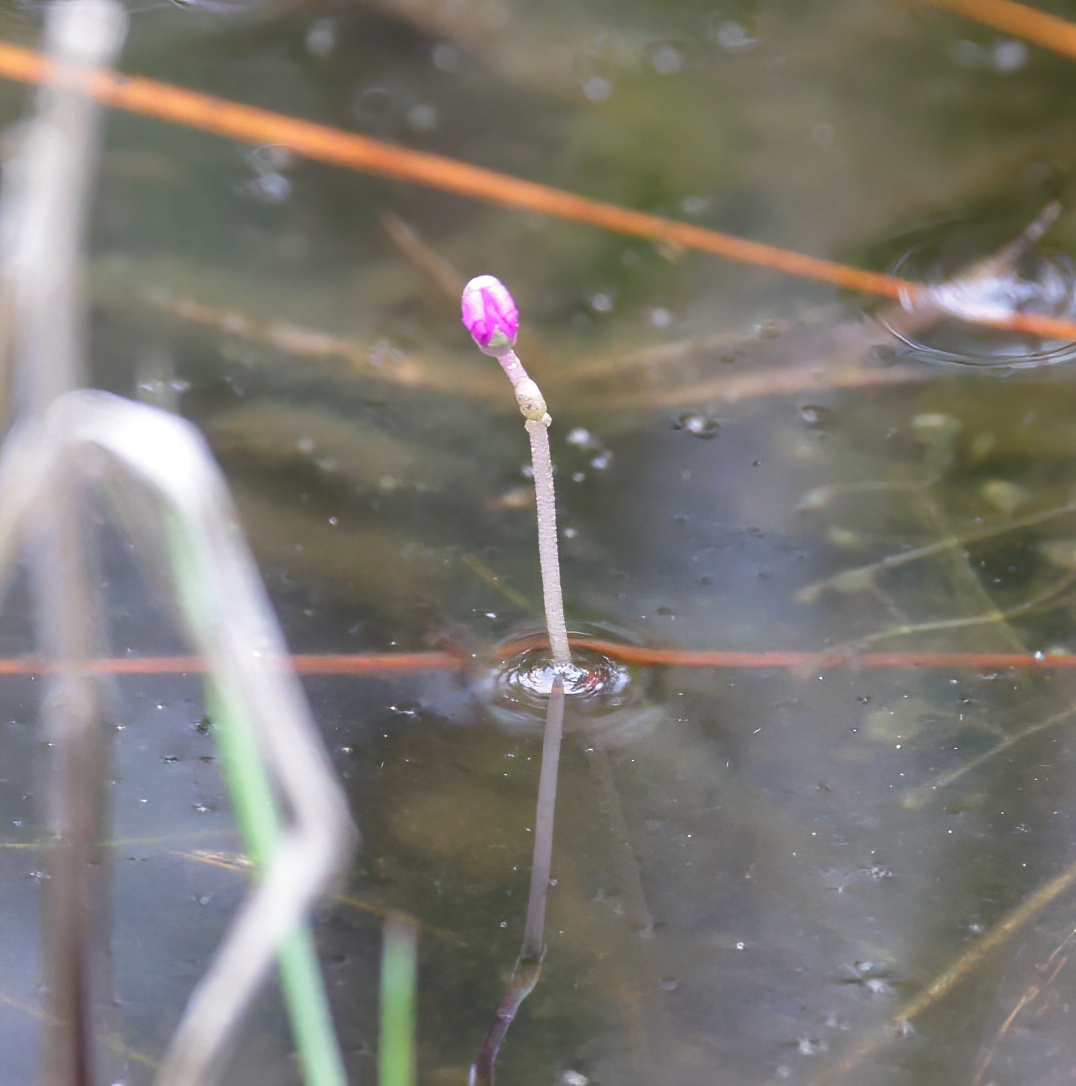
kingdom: Plantae
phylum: Tracheophyta
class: Magnoliopsida
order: Lamiales
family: Lentibulariaceae
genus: Utricularia
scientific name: Utricularia purpurea
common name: Eastern purple bladderwort
